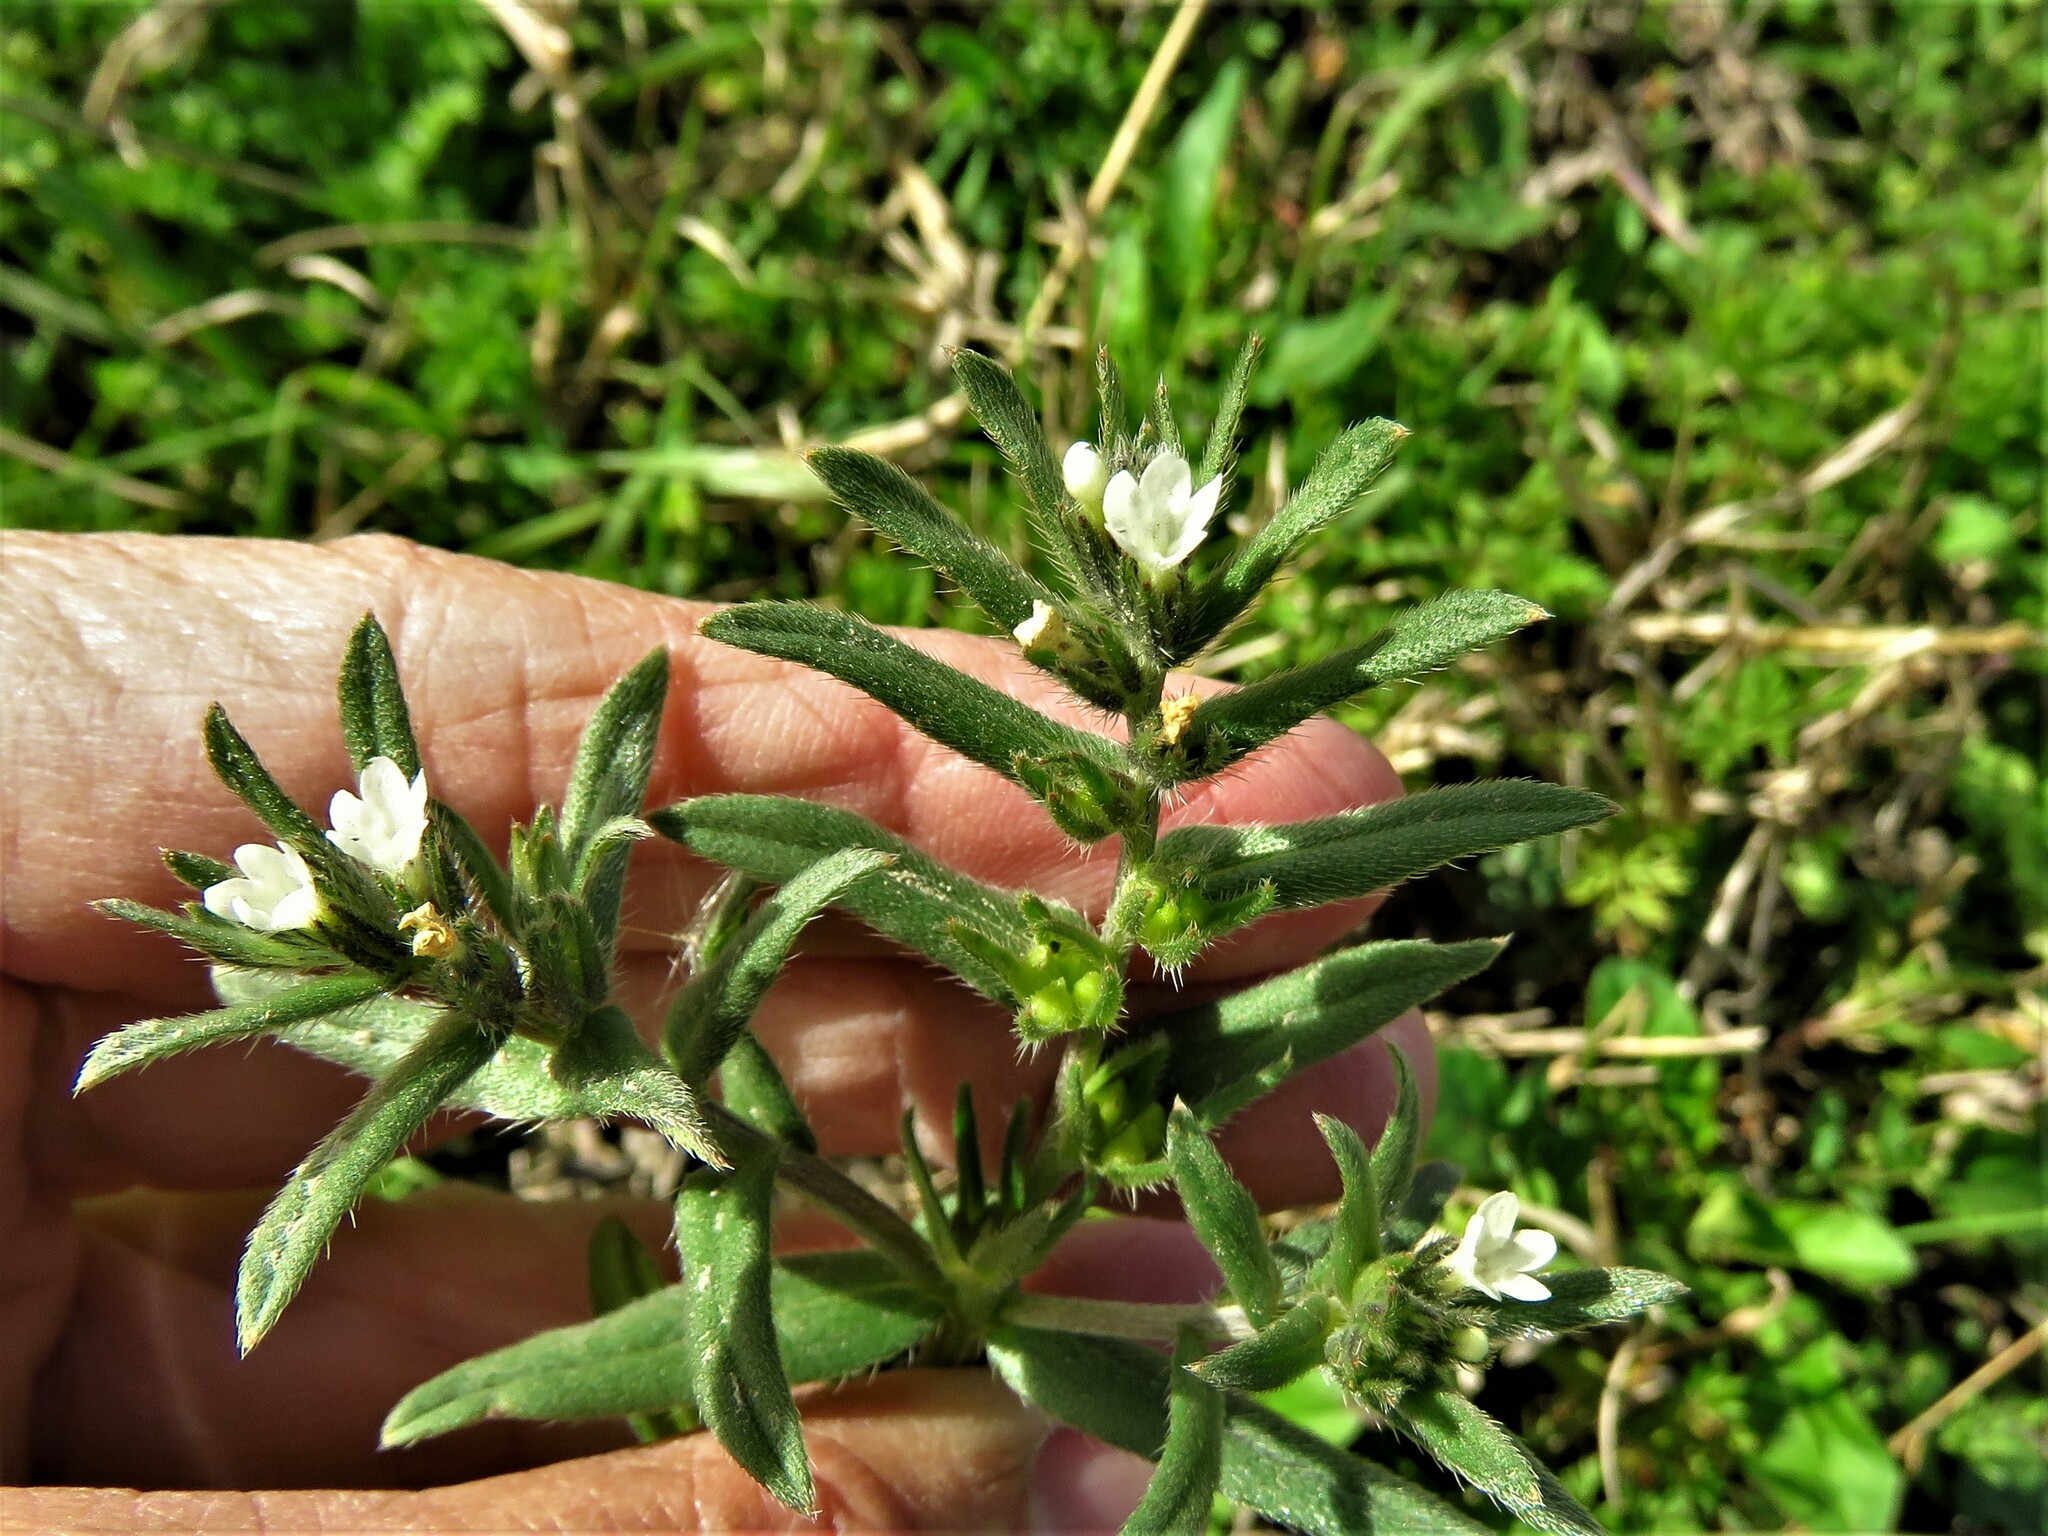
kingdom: Plantae
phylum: Tracheophyta
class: Magnoliopsida
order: Boraginales
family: Boraginaceae
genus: Buglossoides
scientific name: Buglossoides arvensis
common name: Corn gromwell
